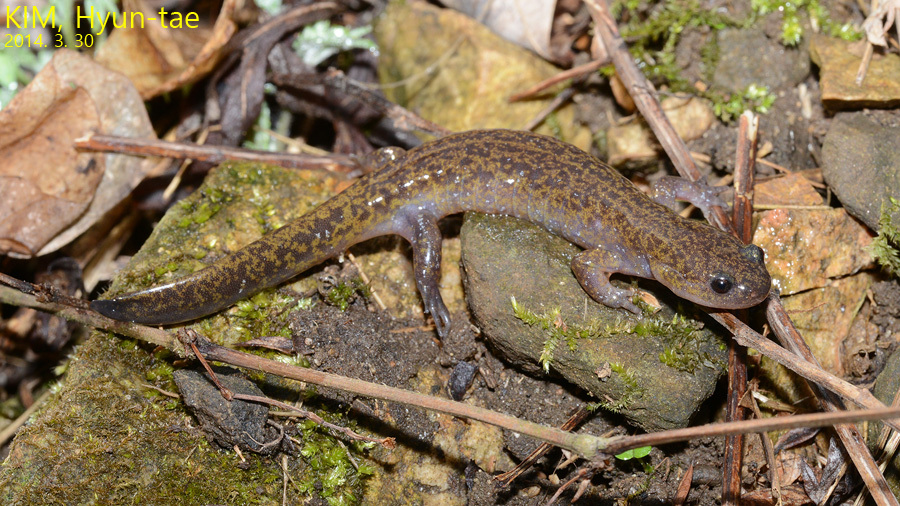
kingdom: Animalia
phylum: Chordata
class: Amphibia
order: Caudata
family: Hynobiidae
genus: Hynobius
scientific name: Hynobius yangi
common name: Yangi salamander
